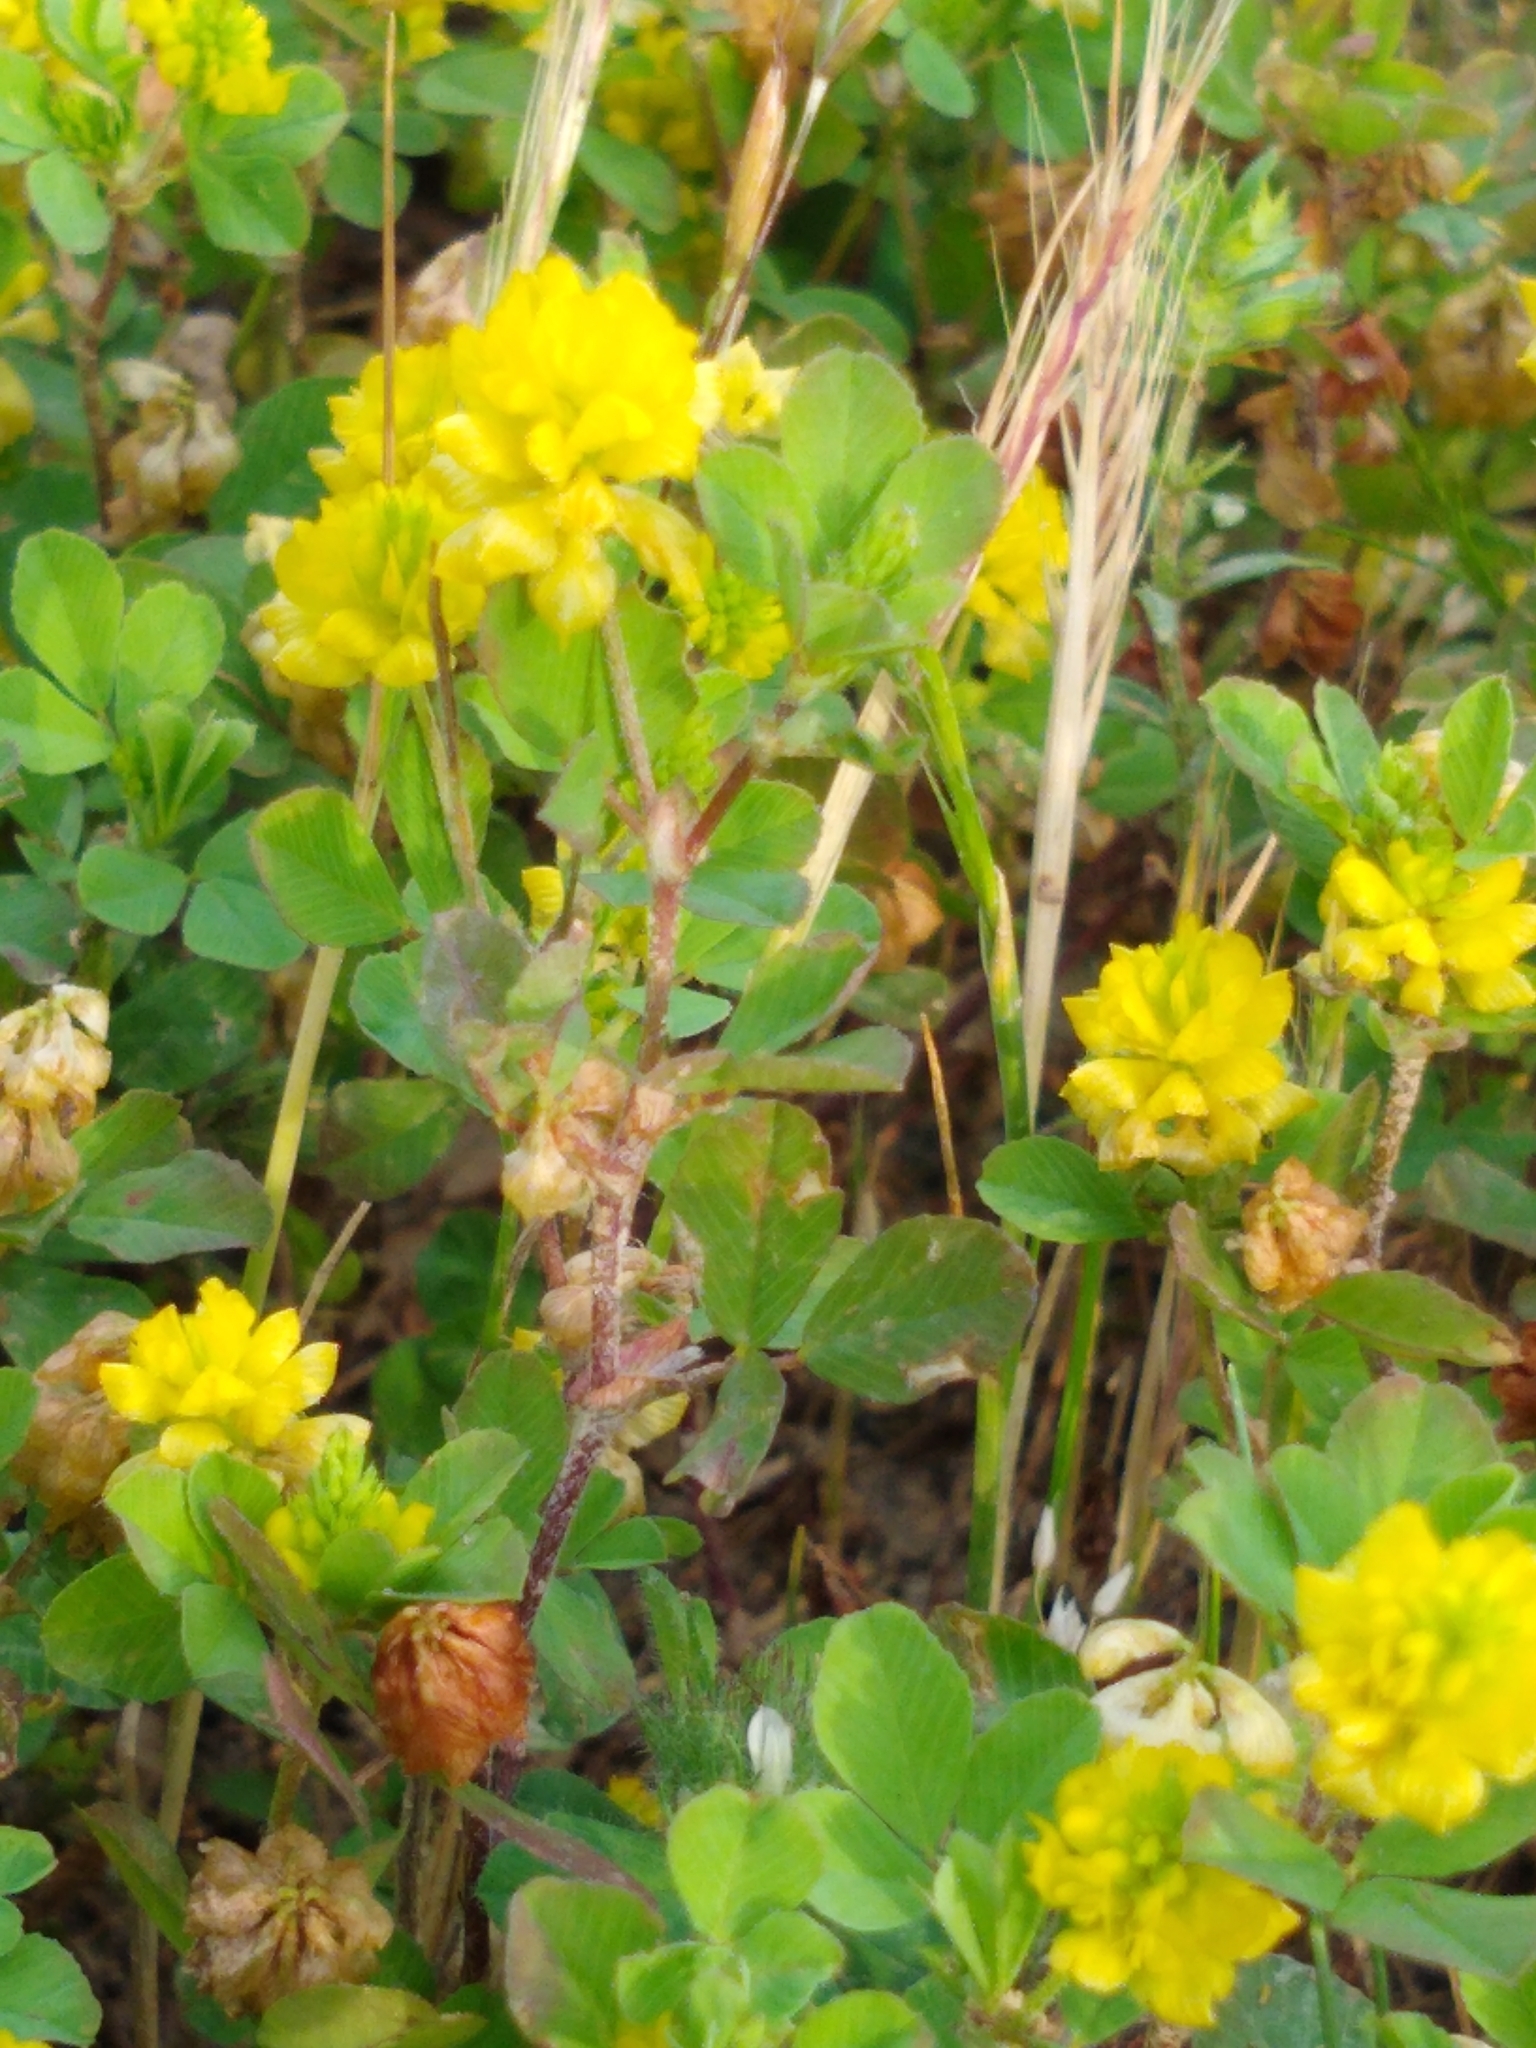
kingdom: Plantae
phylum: Tracheophyta
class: Magnoliopsida
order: Fabales
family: Fabaceae
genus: Trifolium
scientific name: Trifolium campestre
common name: Field clover
